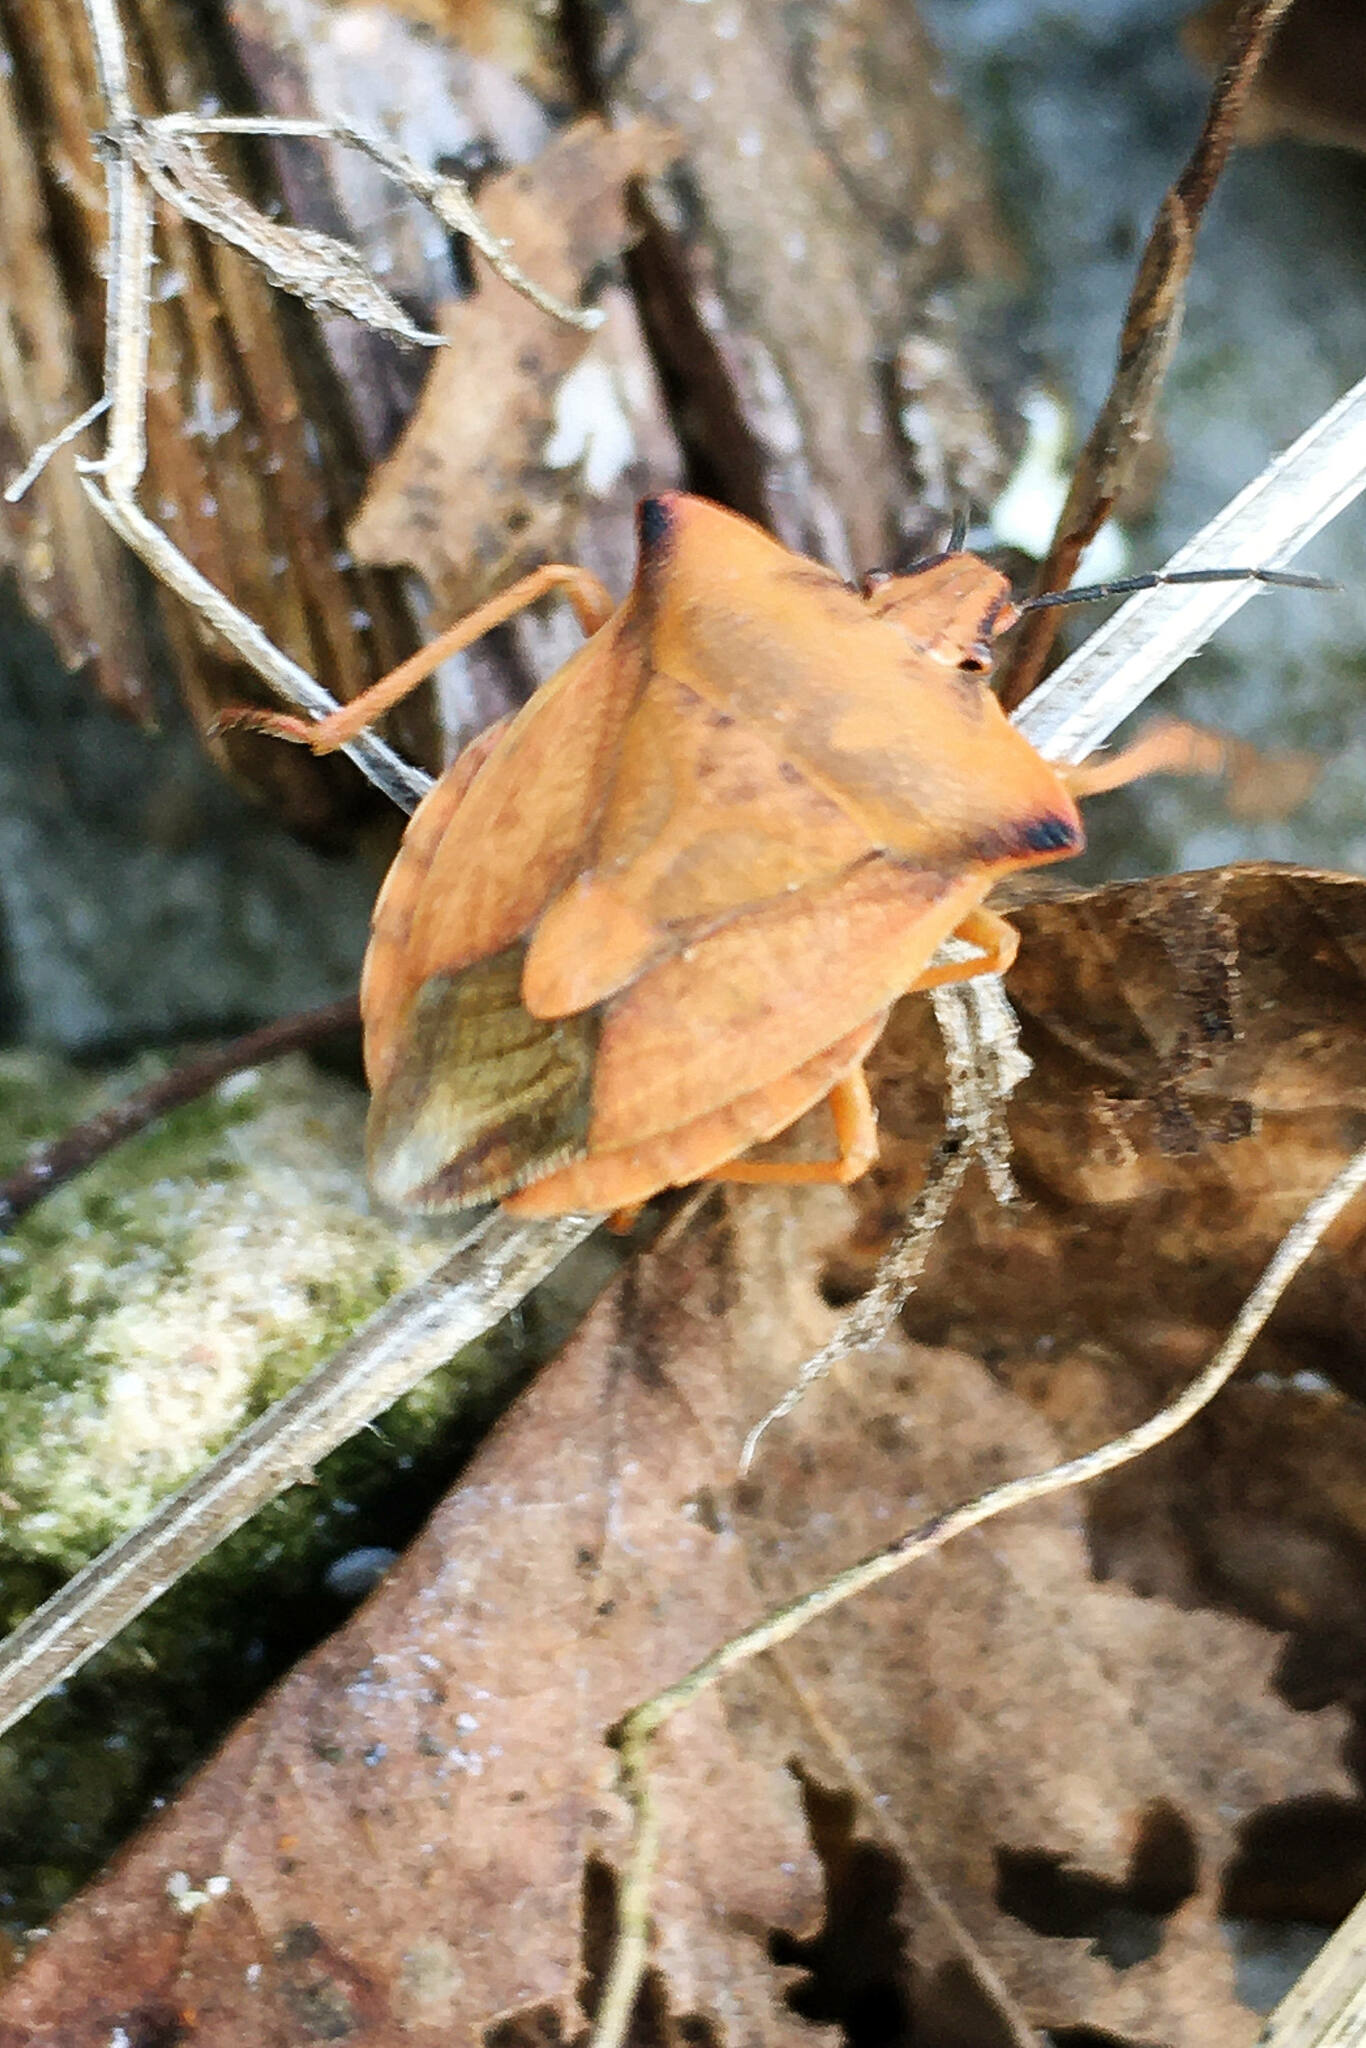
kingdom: Animalia
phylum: Arthropoda
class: Insecta
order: Hemiptera
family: Pentatomidae
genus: Carpocoris
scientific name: Carpocoris fuscispinus
